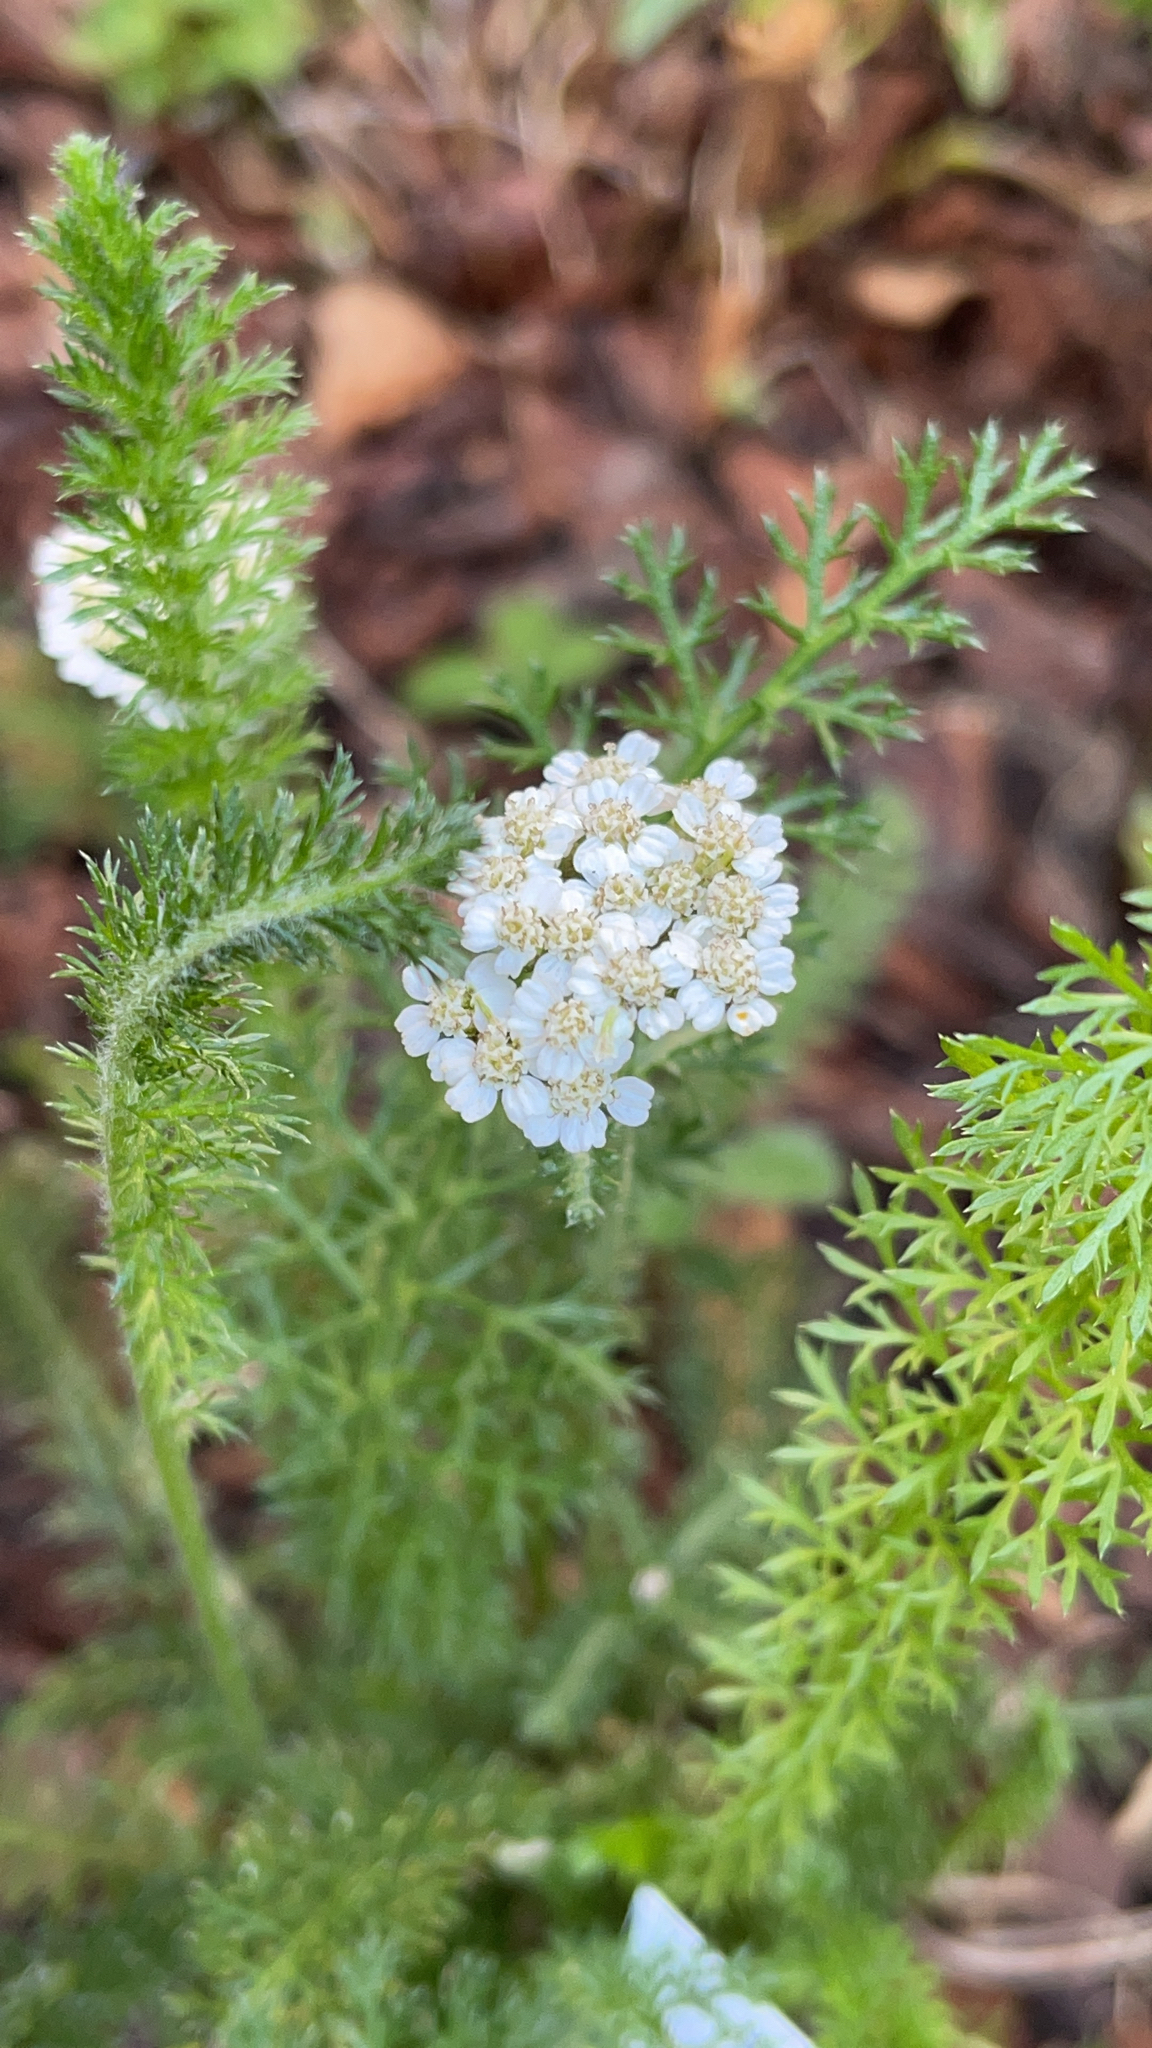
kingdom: Plantae
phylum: Tracheophyta
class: Magnoliopsida
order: Asterales
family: Asteraceae
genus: Achillea
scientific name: Achillea millefolium
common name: Yarrow
